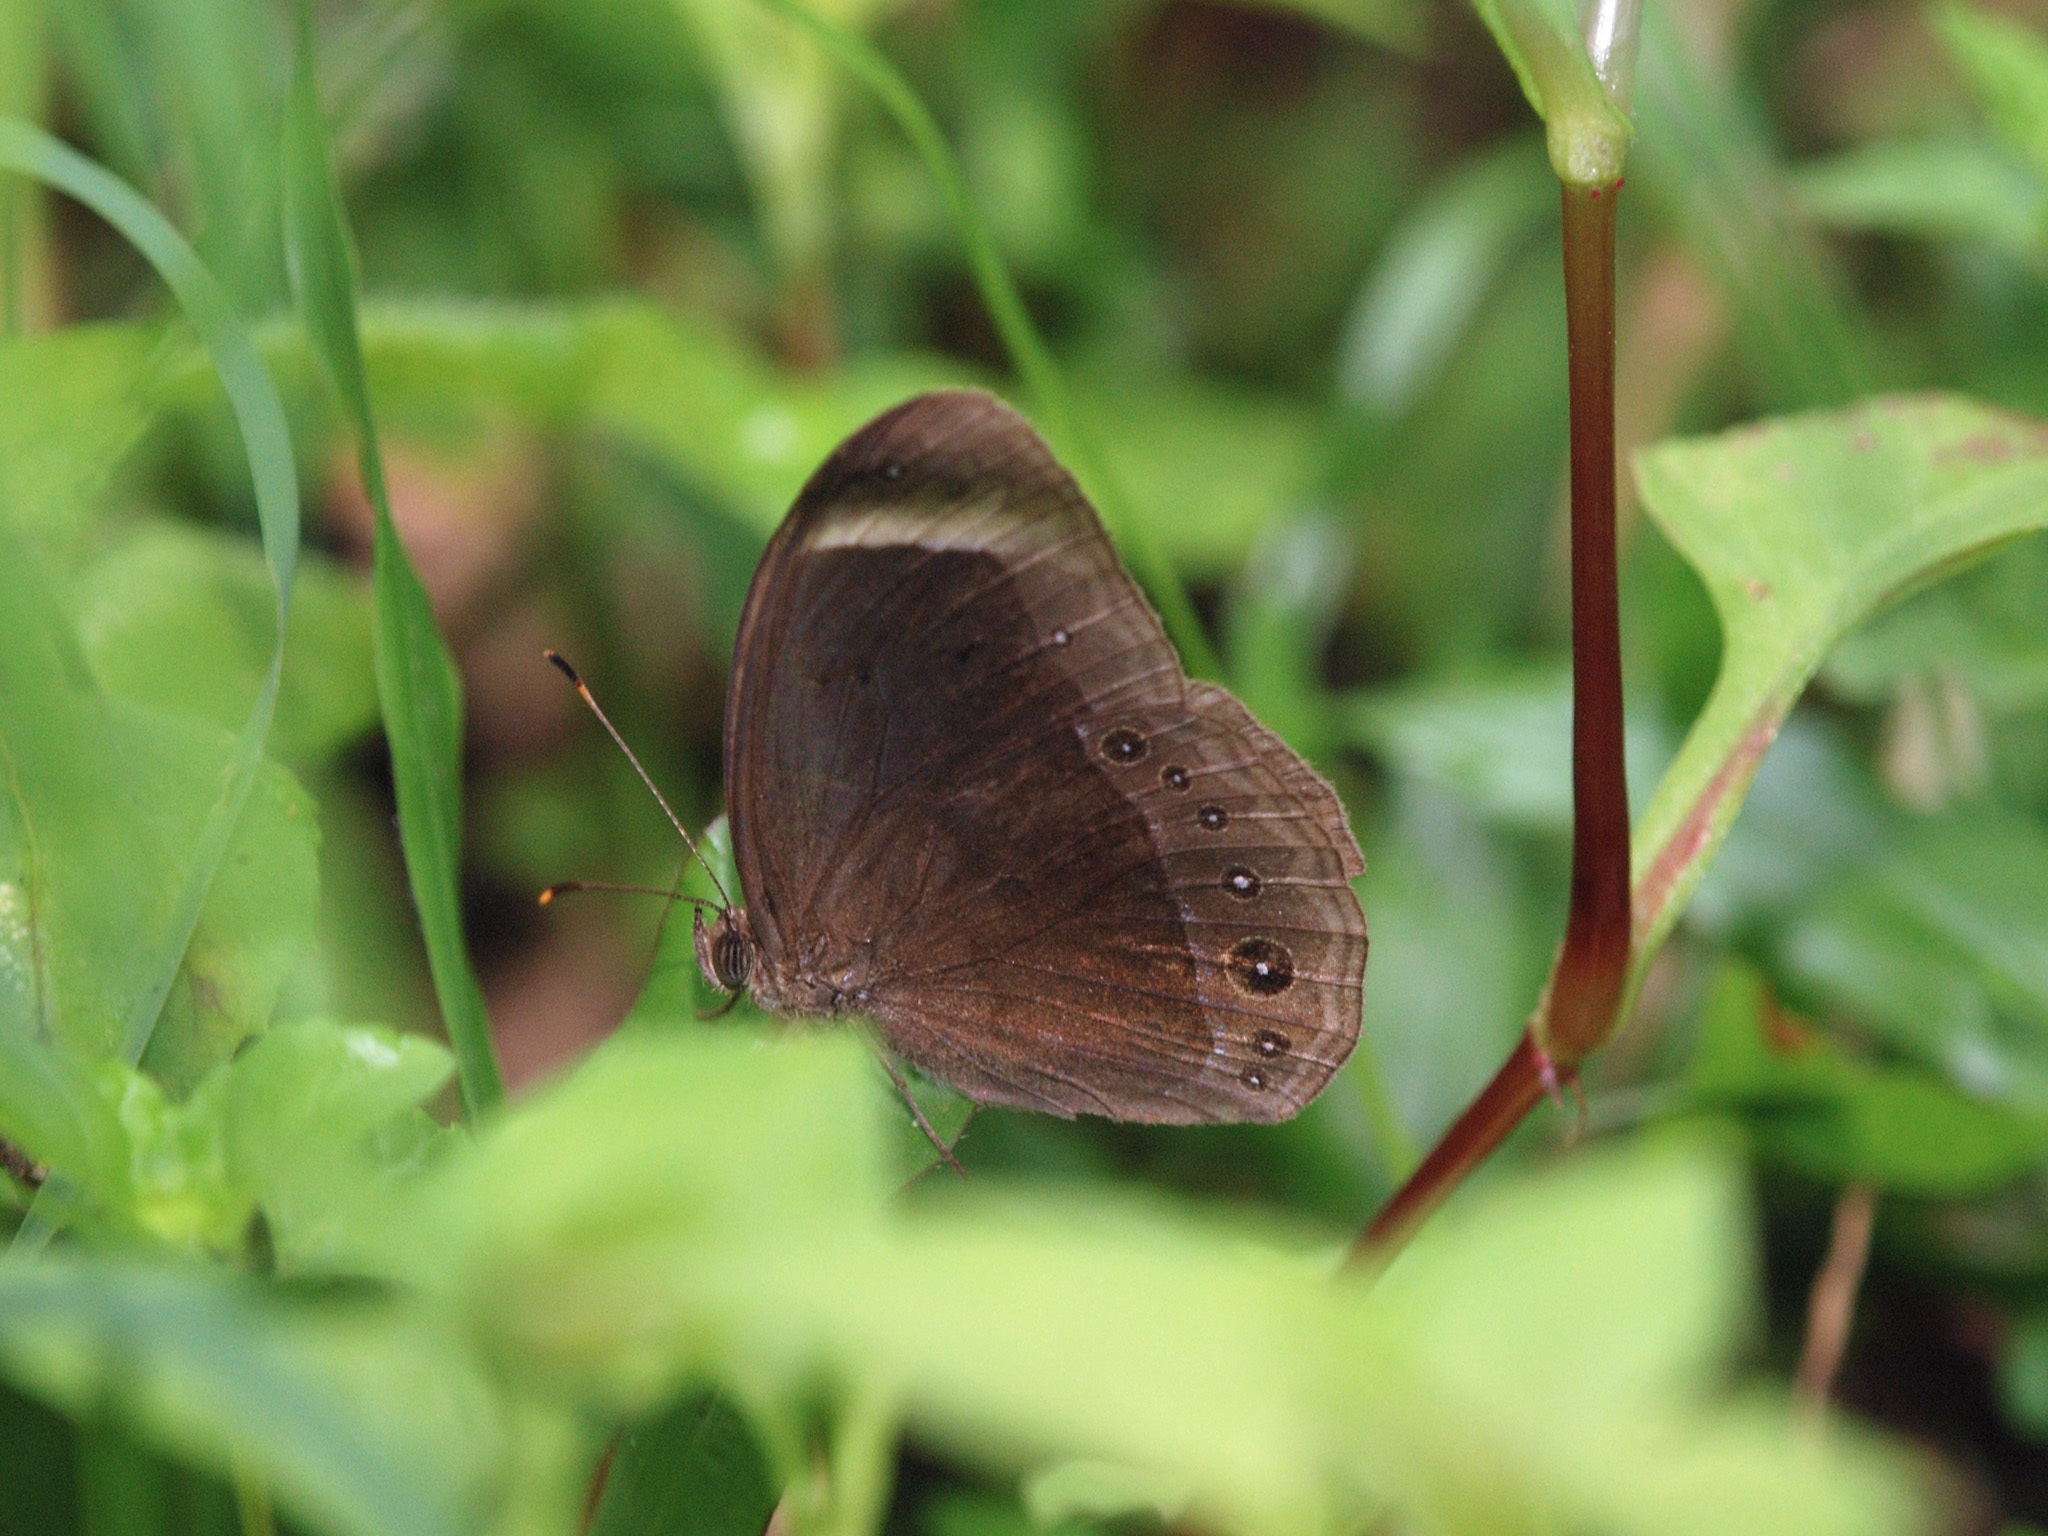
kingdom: Animalia
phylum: Arthropoda
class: Insecta
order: Lepidoptera
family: Nymphalidae
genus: Mycalesis
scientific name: Mycalesis anaxias
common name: White-bar bushbrown
